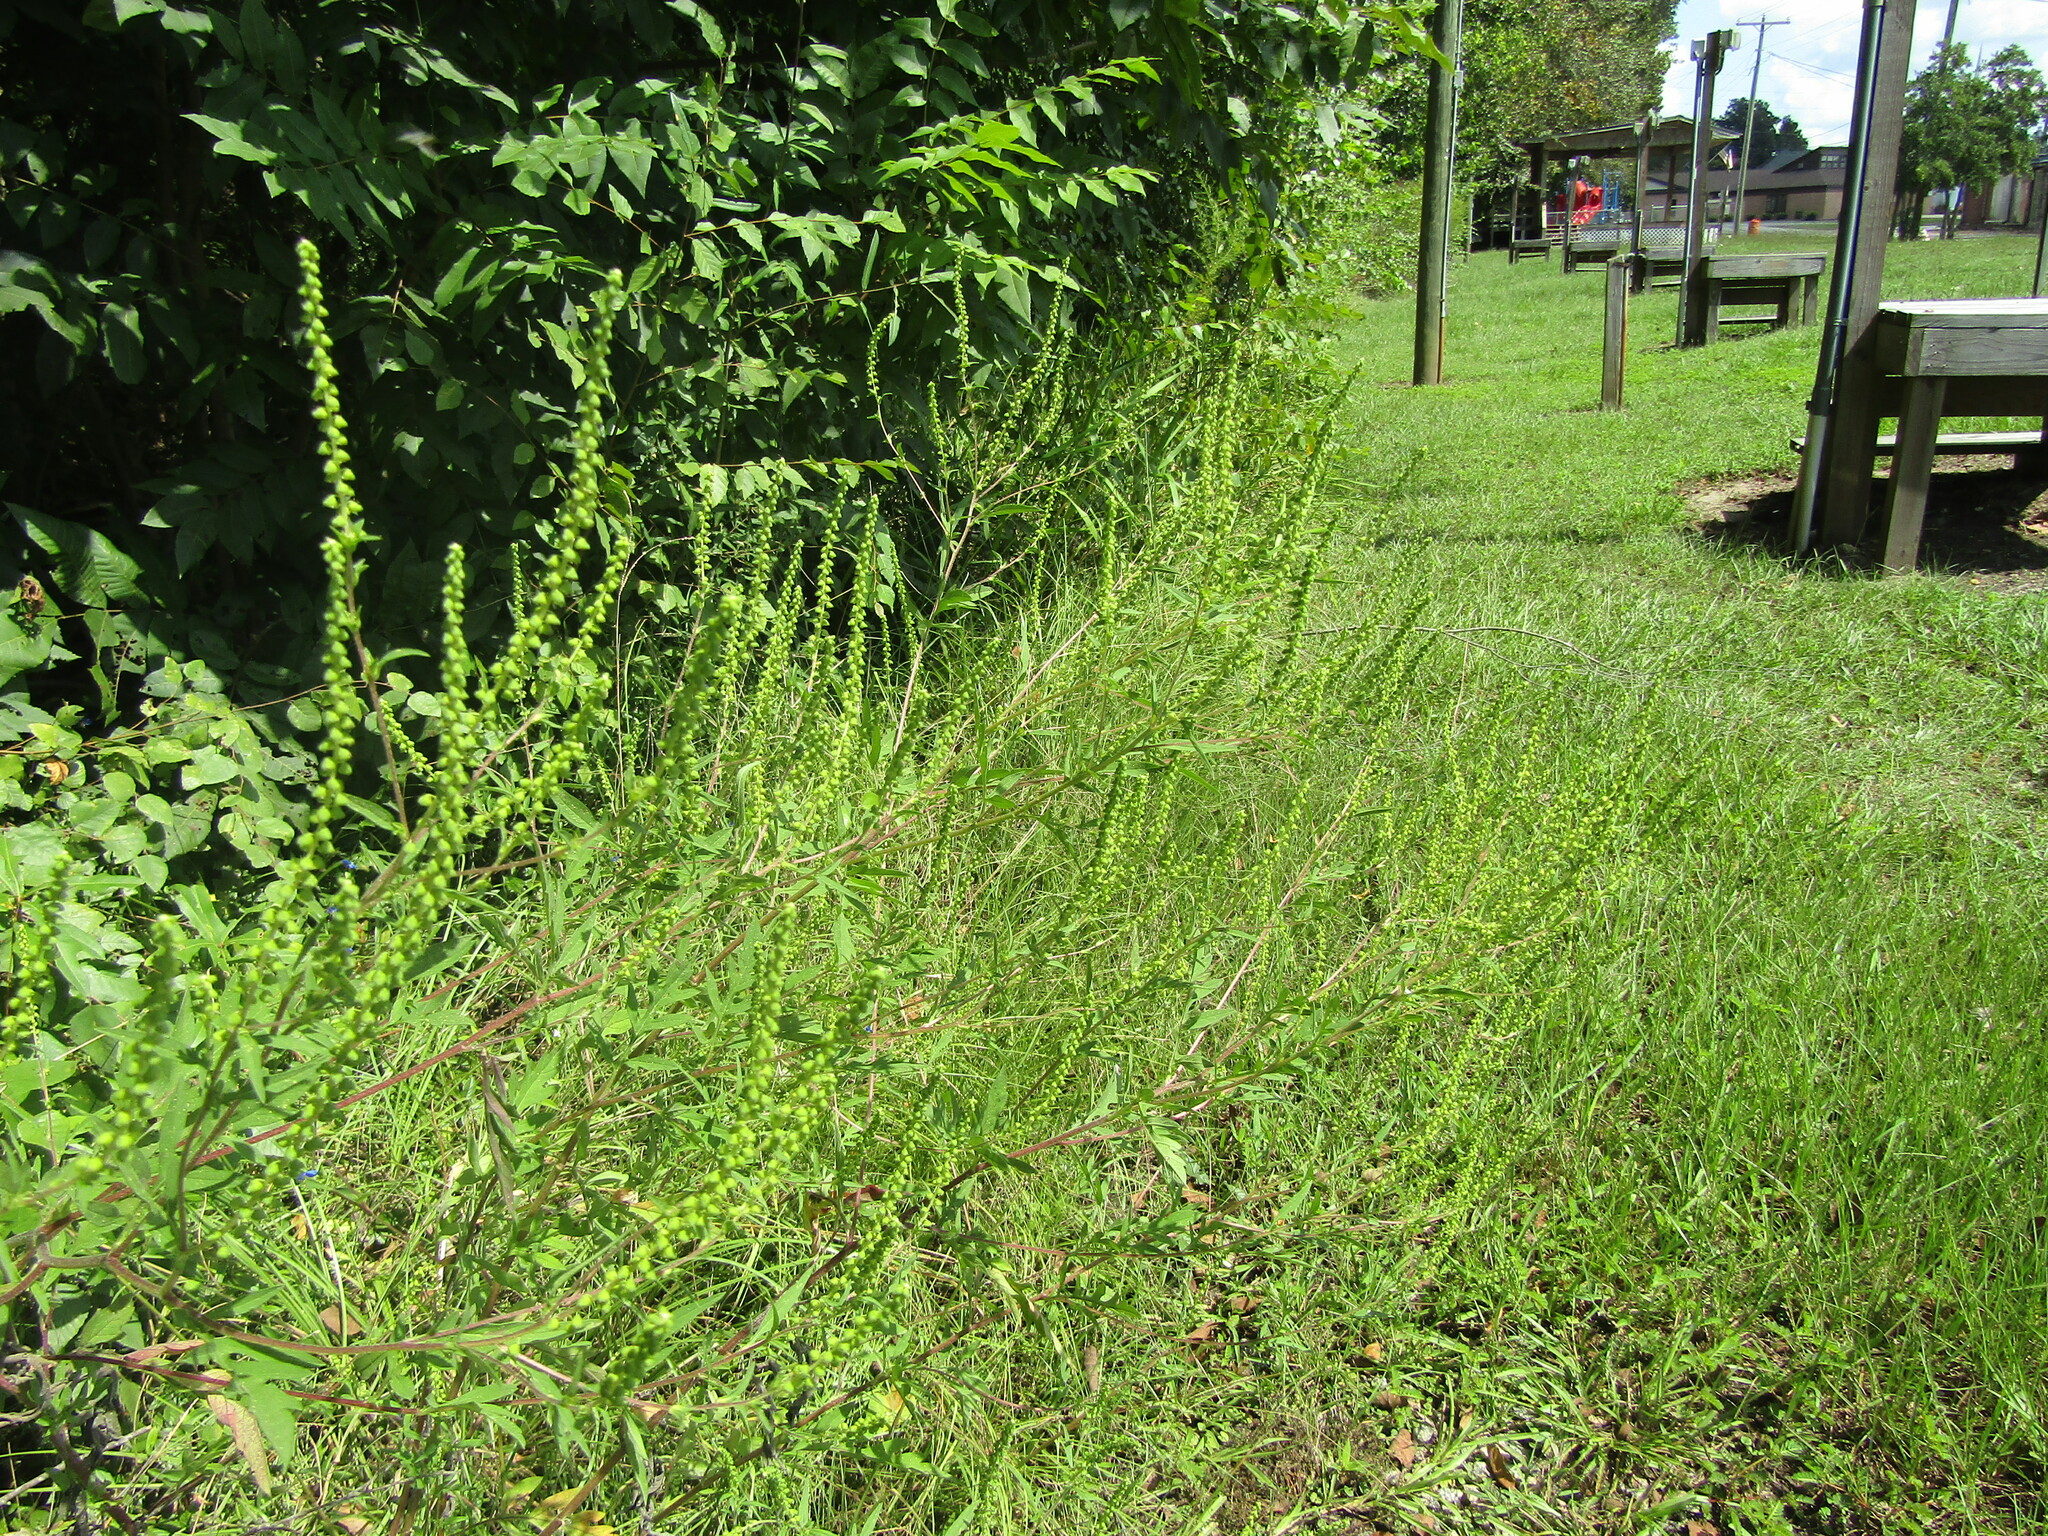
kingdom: Plantae
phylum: Tracheophyta
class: Magnoliopsida
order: Asterales
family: Asteraceae
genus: Ambrosia
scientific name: Ambrosia artemisiifolia
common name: Annual ragweed
